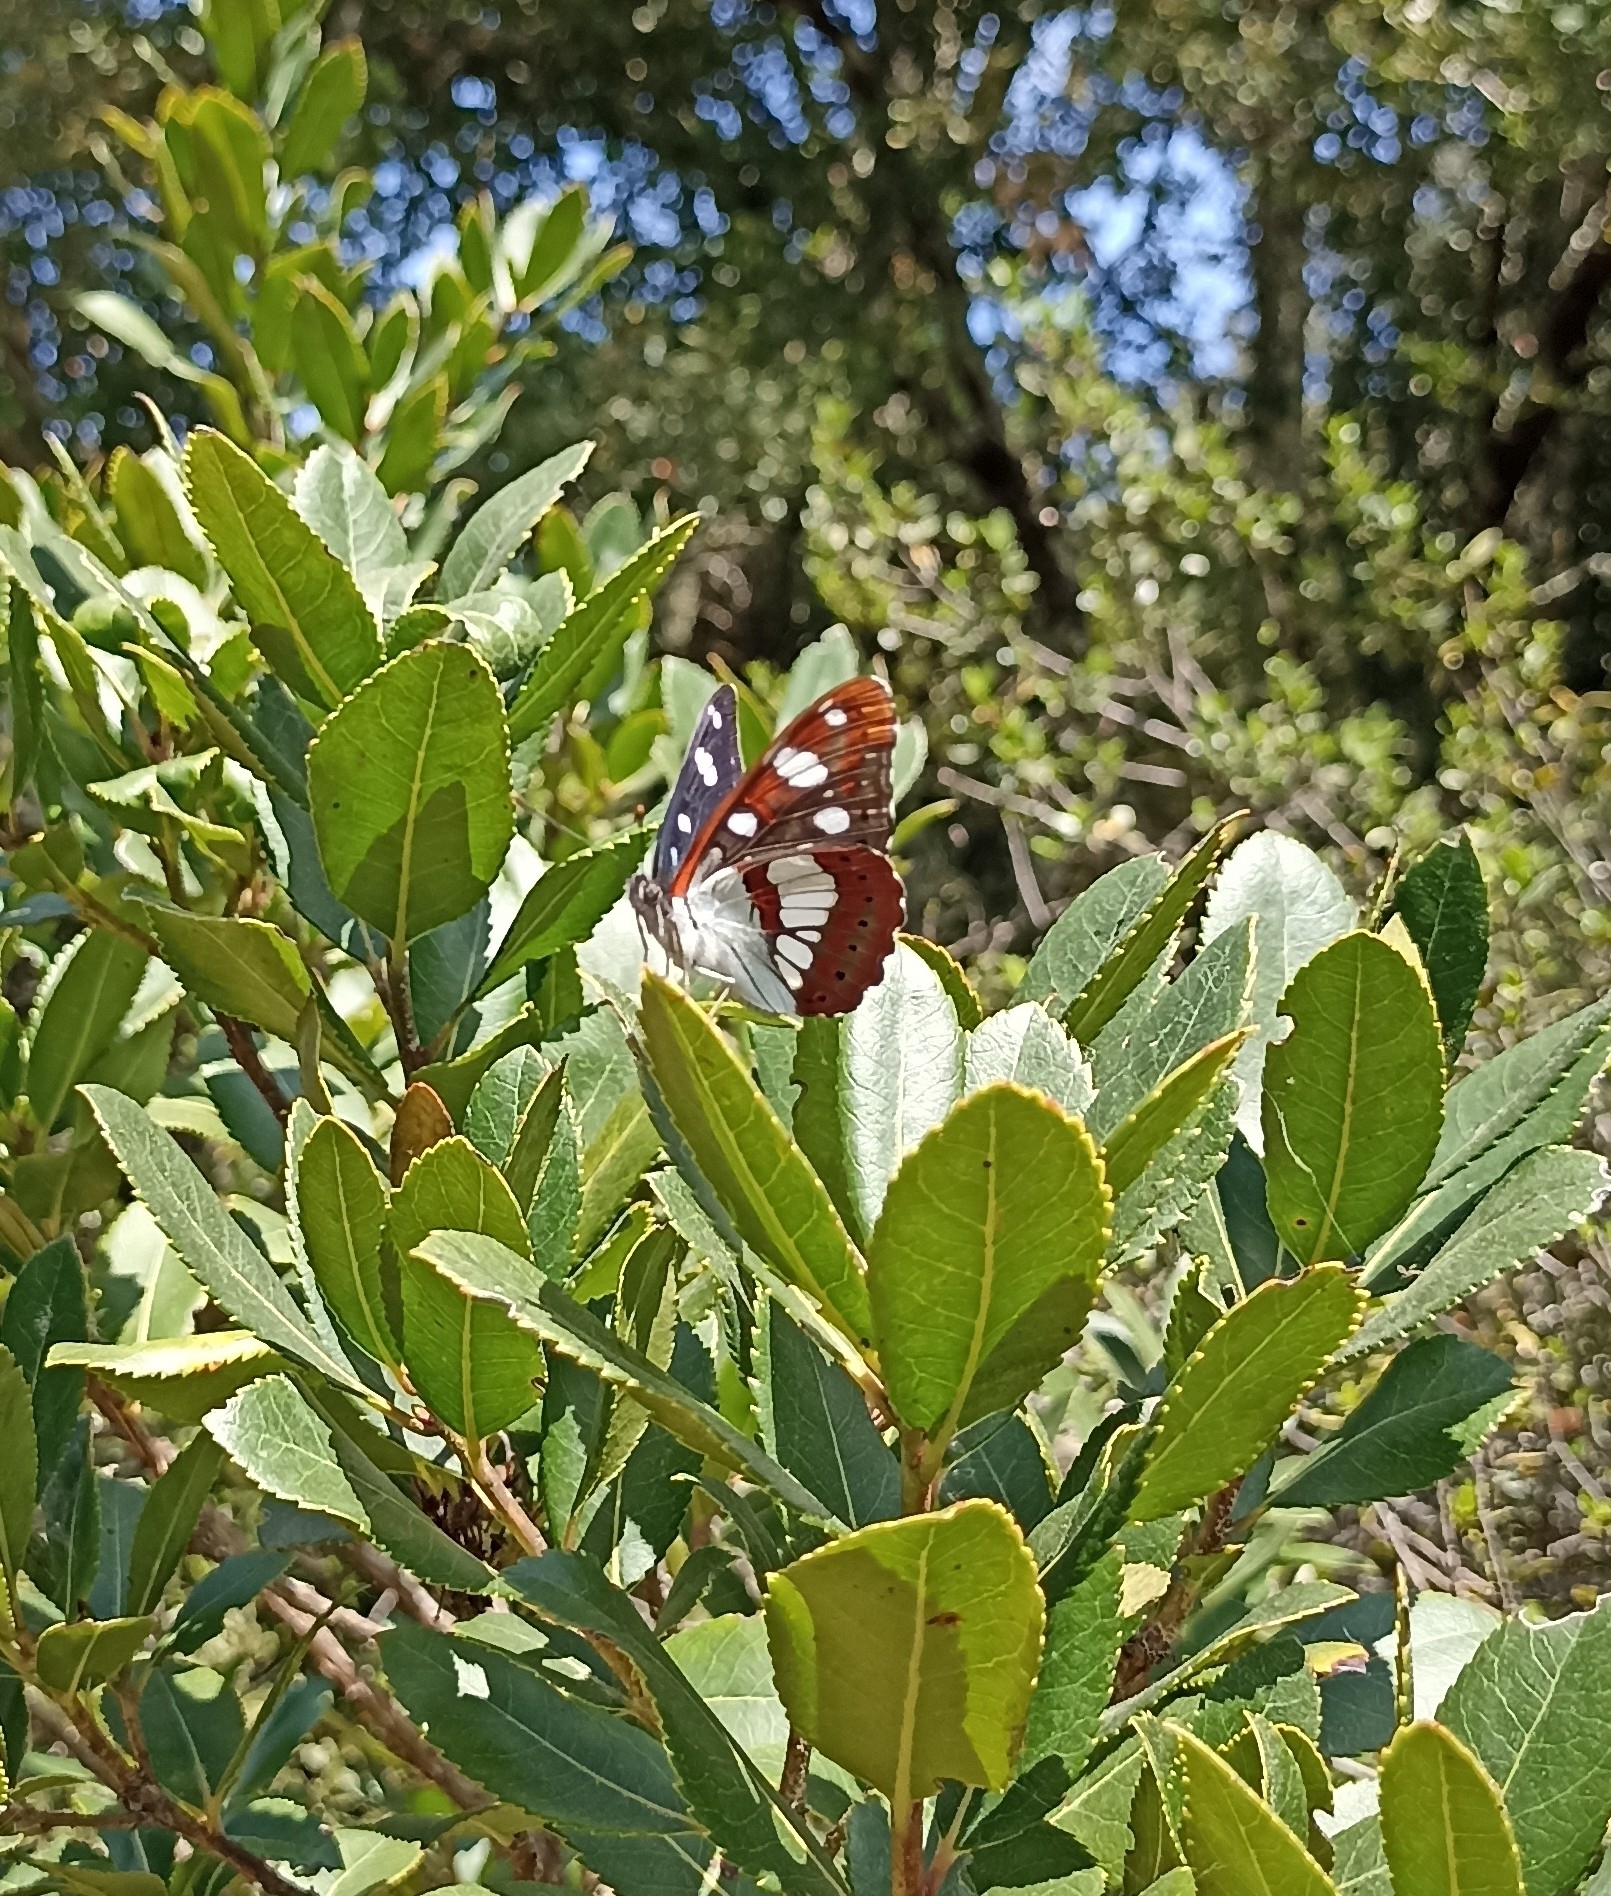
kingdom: Animalia
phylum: Arthropoda
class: Insecta
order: Lepidoptera
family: Nymphalidae
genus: Limenitis
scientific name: Limenitis reducta
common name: Southern white admiral
